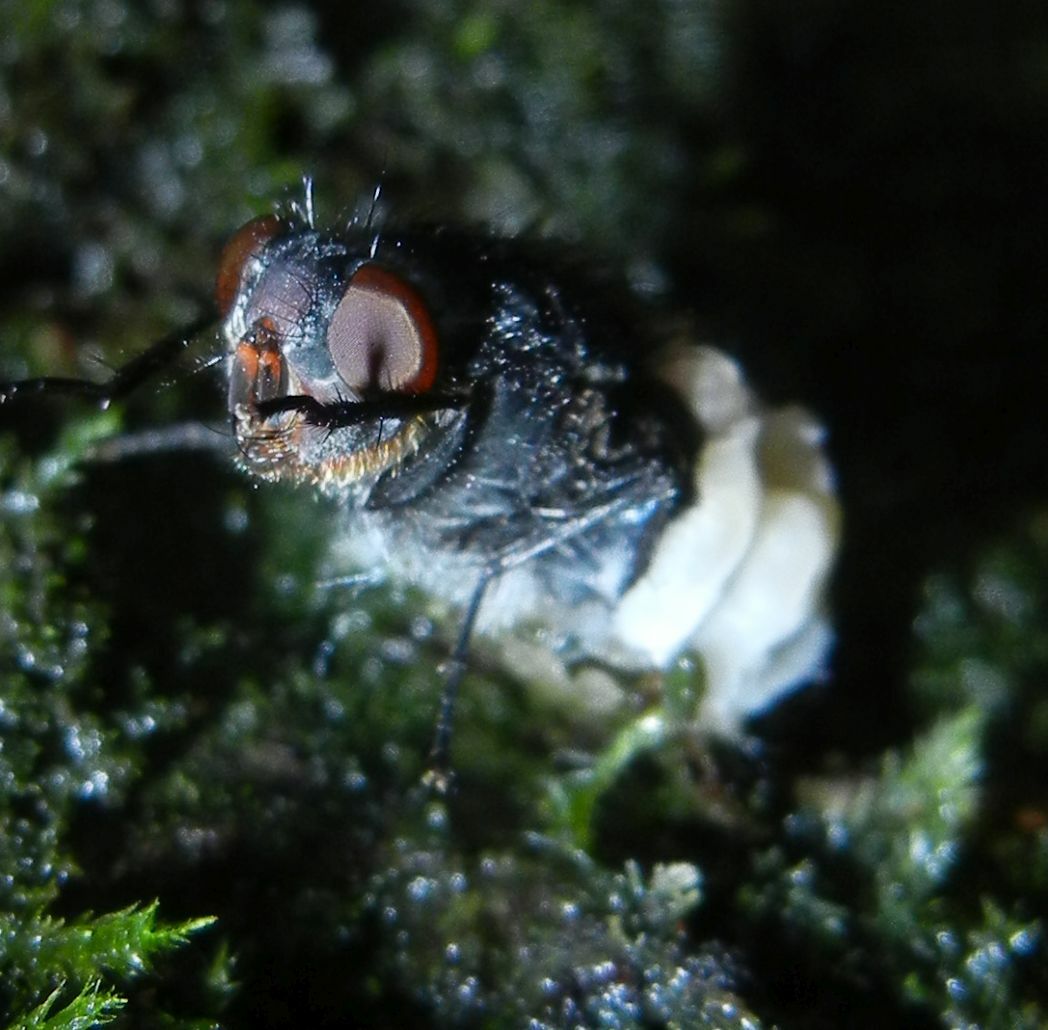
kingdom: Animalia
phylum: Arthropoda
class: Insecta
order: Diptera
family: Calliphoridae
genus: Calliphora
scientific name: Calliphora vomitoria
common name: Blue bottle fly
